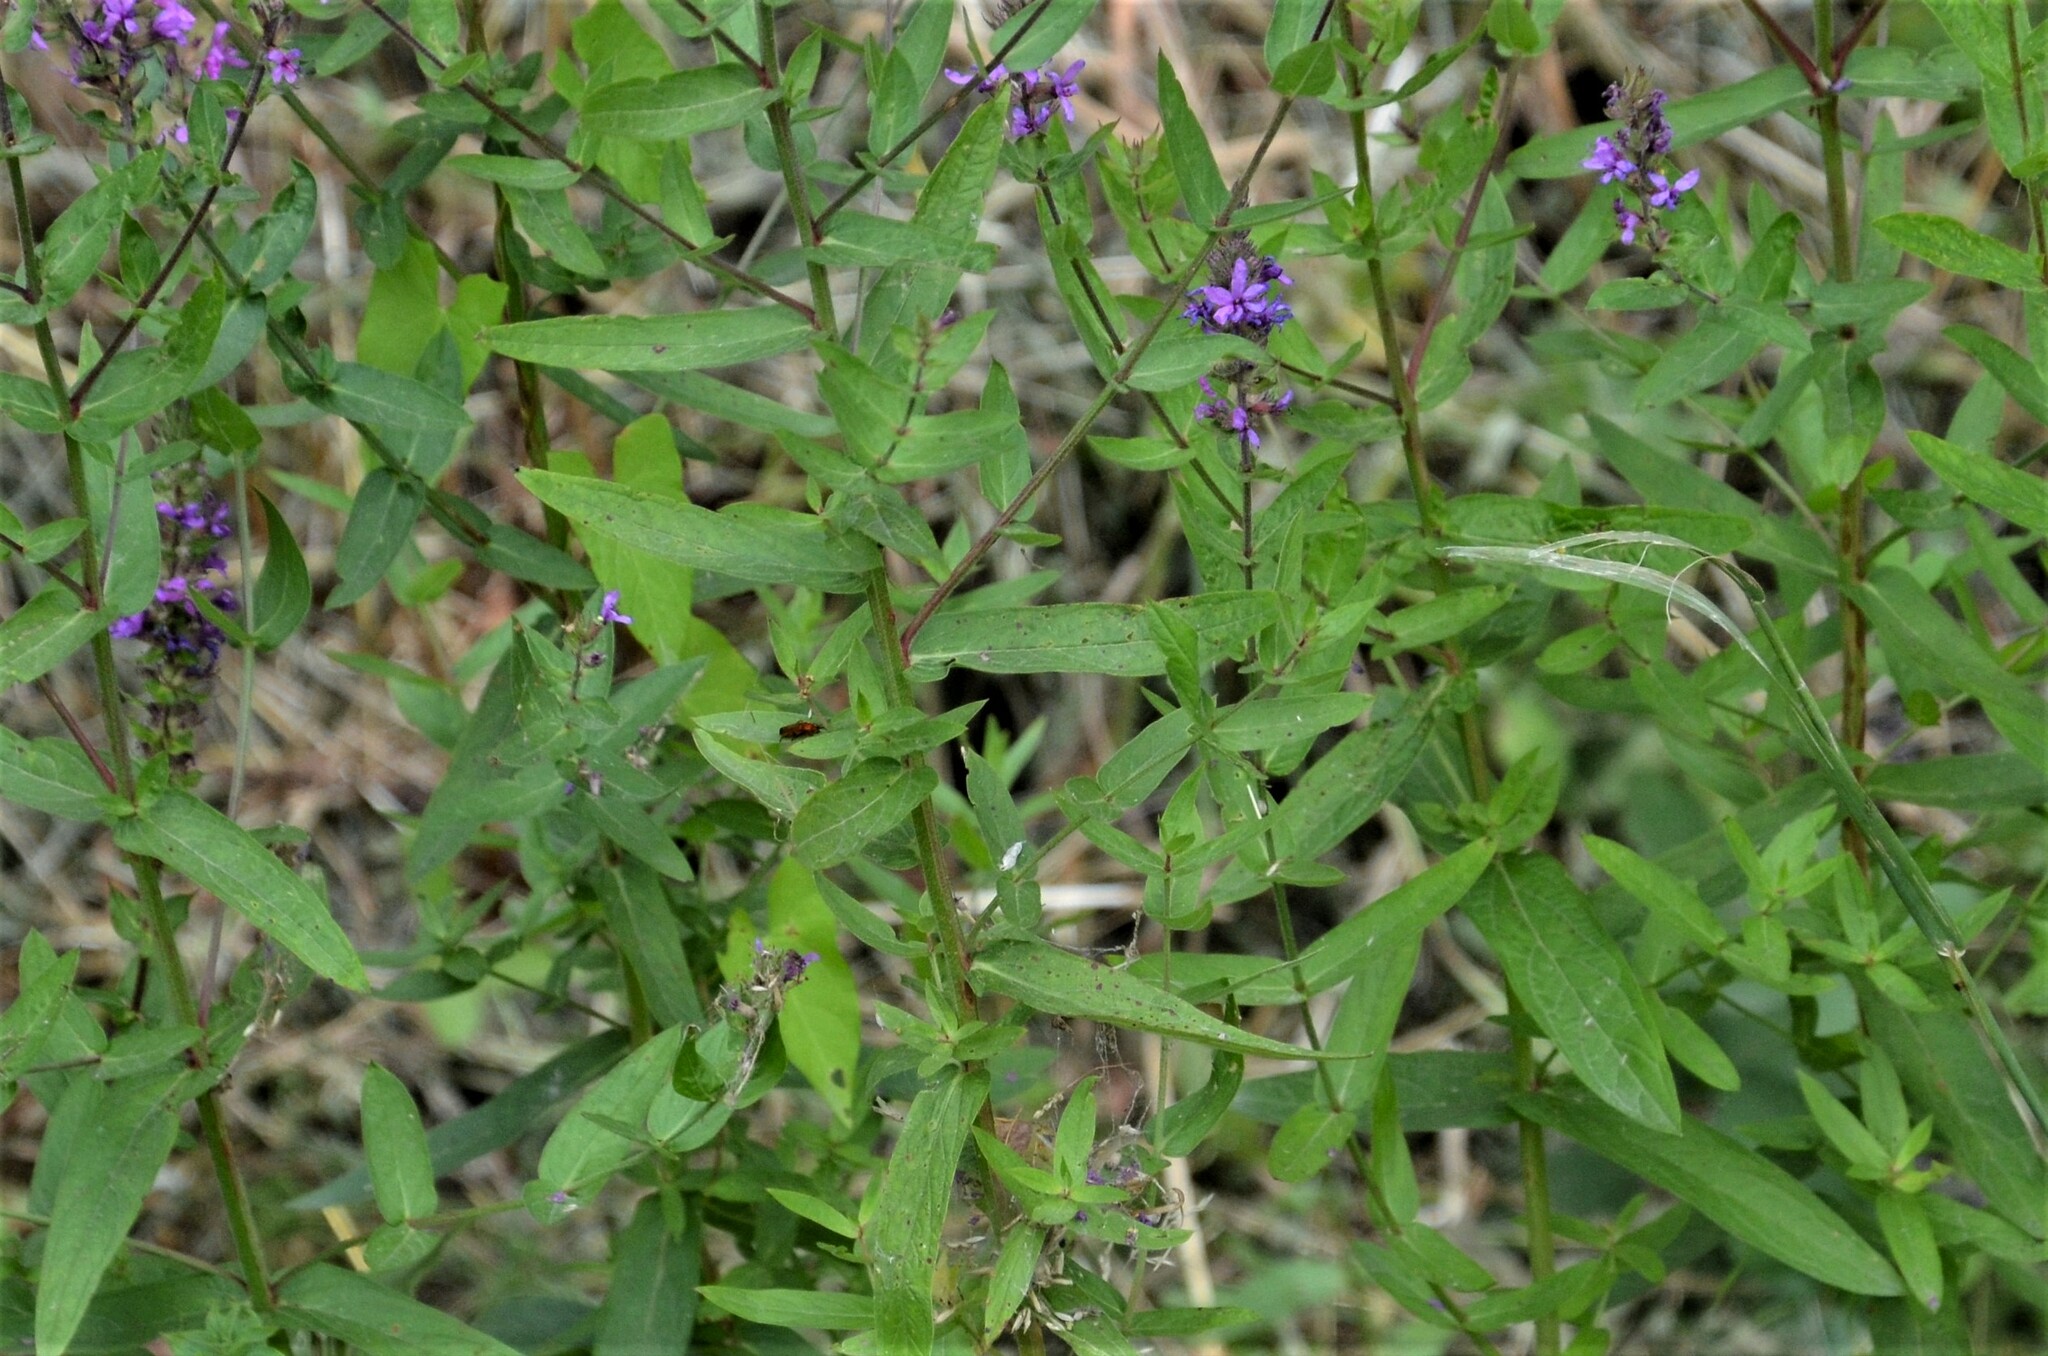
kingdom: Plantae
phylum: Tracheophyta
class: Magnoliopsida
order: Myrtales
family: Lythraceae
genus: Lythrum
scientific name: Lythrum salicaria
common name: Purple loosestrife
